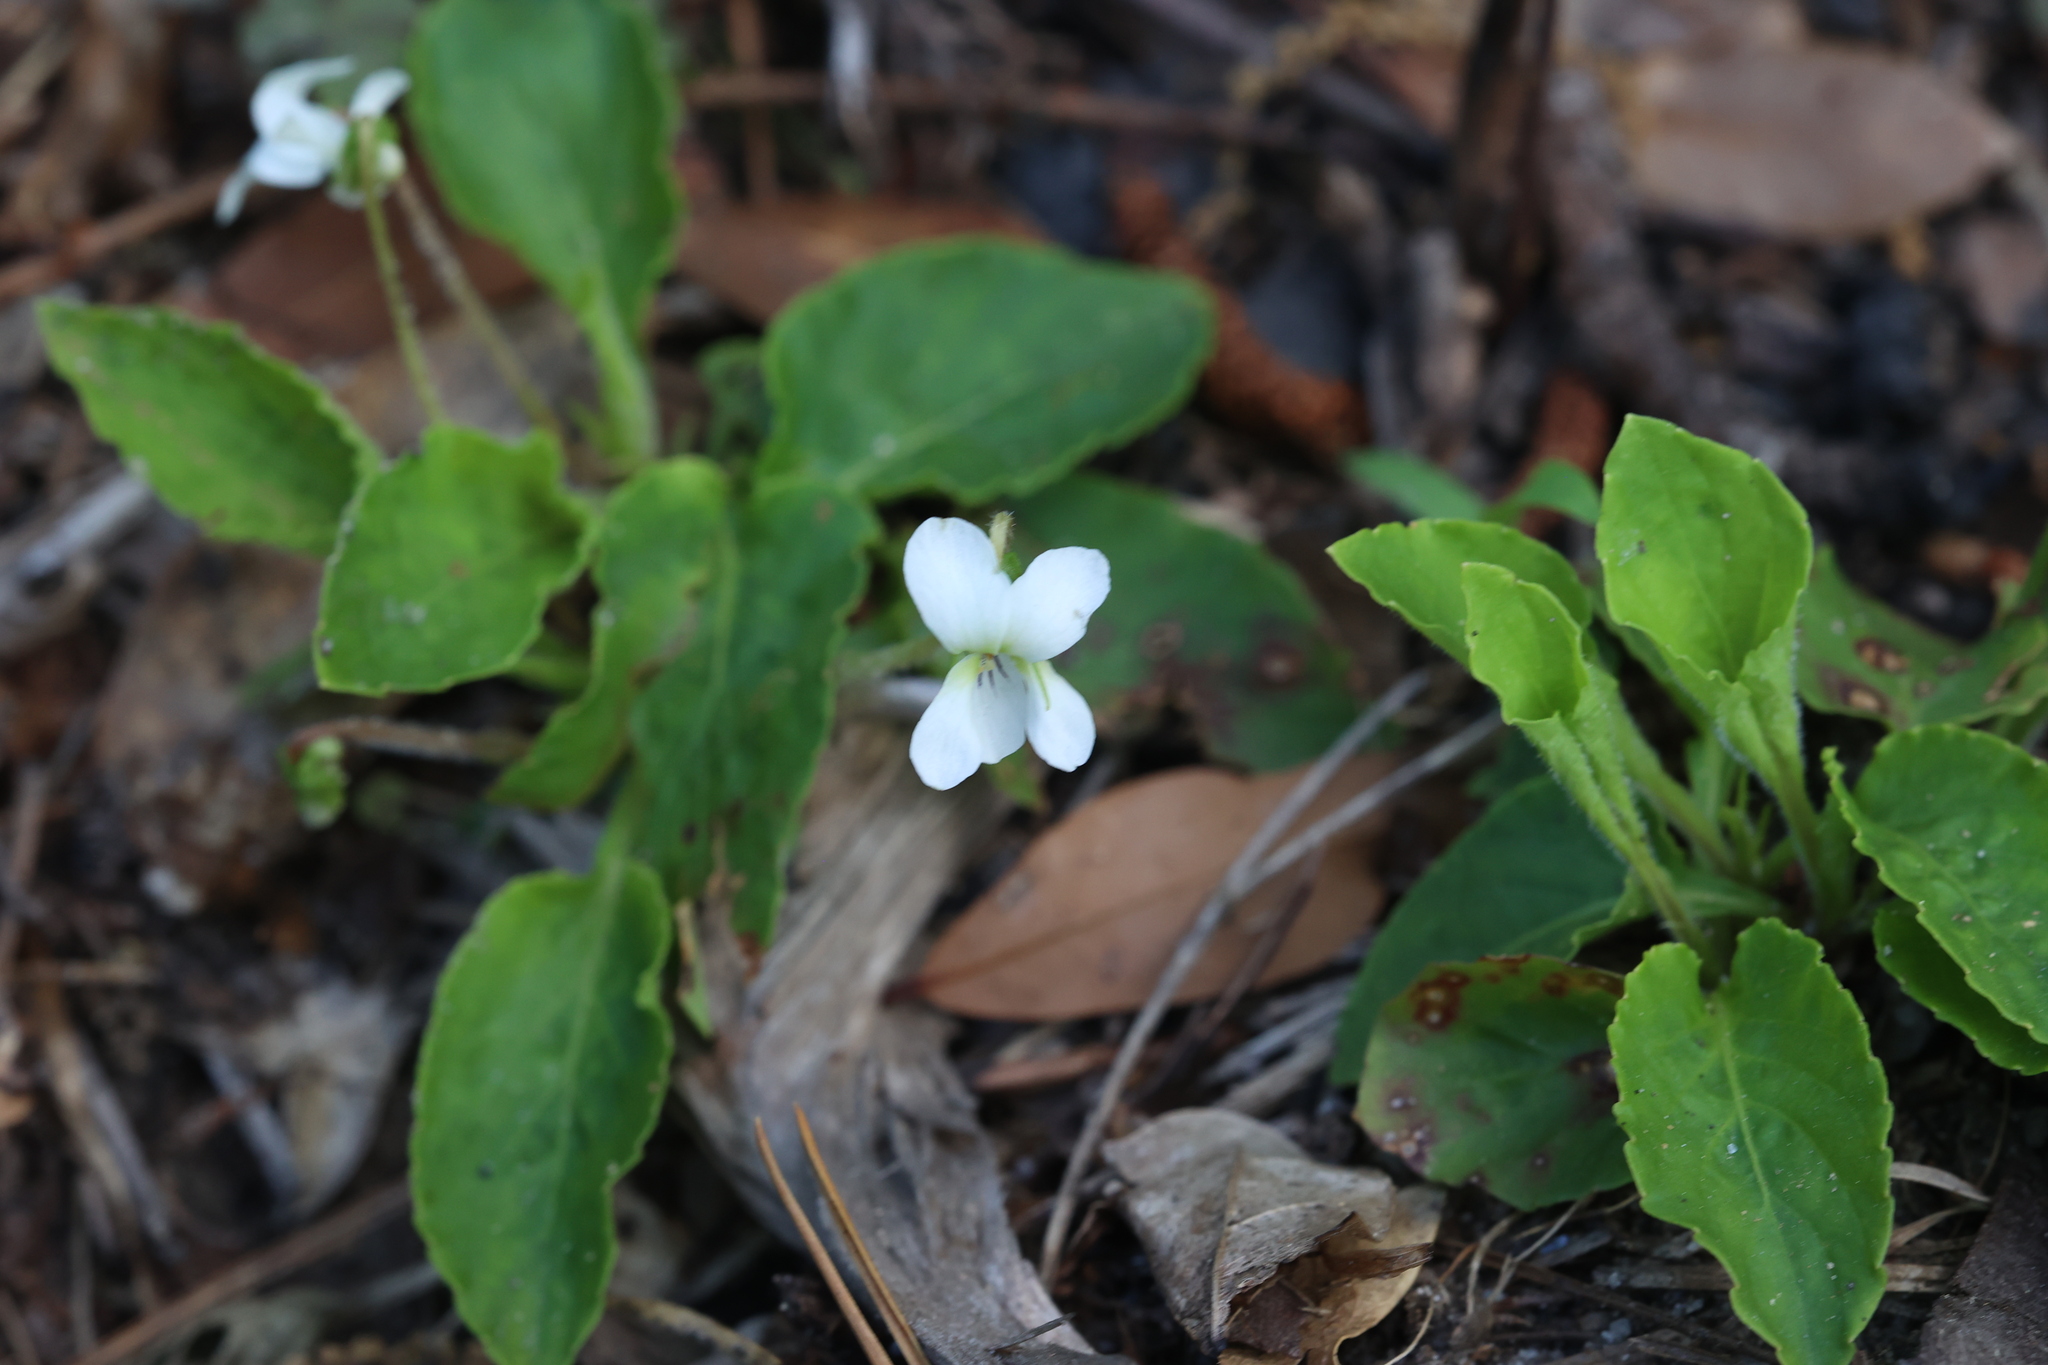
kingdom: Plantae
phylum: Tracheophyta
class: Magnoliopsida
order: Malpighiales
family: Violaceae
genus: Viola
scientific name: Viola primulifolia
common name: Primrose-leaf violet
